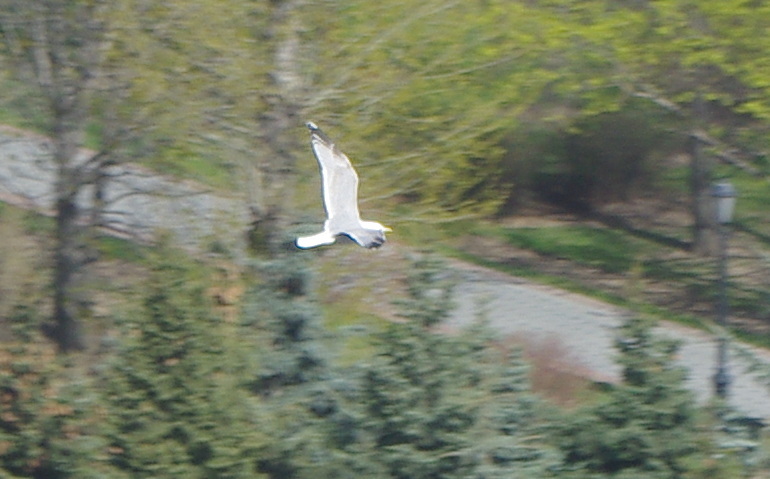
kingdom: Animalia
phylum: Chordata
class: Aves
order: Charadriiformes
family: Laridae
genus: Larus
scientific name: Larus argentatus
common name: Herring gull
